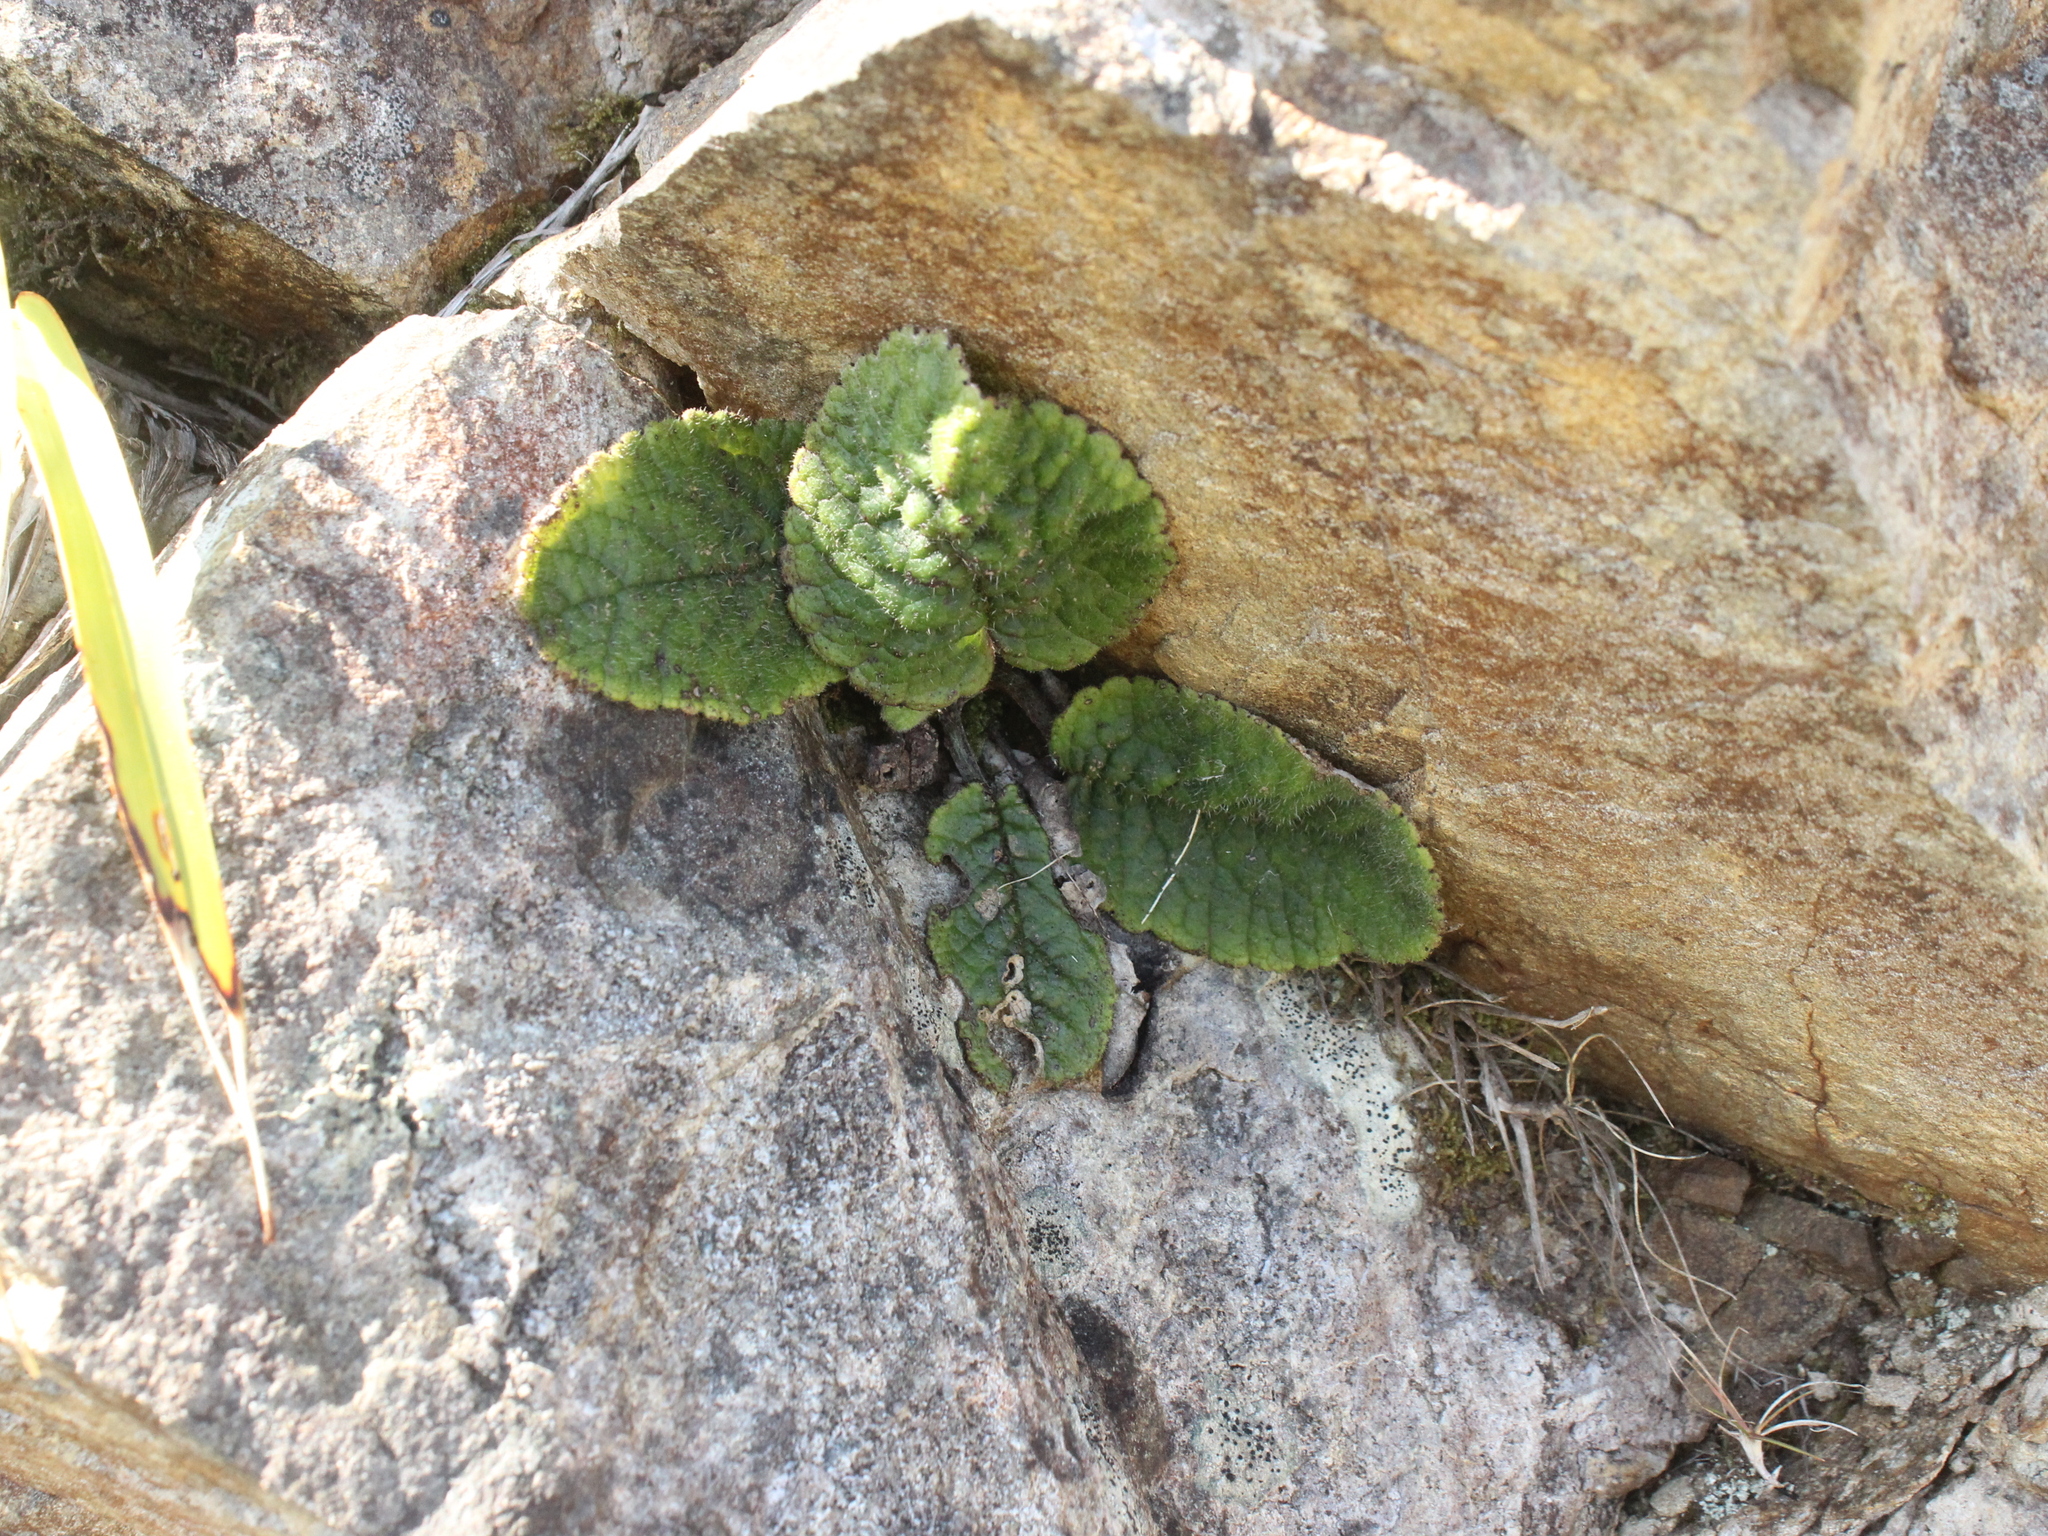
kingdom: Plantae
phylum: Tracheophyta
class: Magnoliopsida
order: Asterales
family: Asteraceae
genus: Brachyglottis
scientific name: Brachyglottis lagopus
